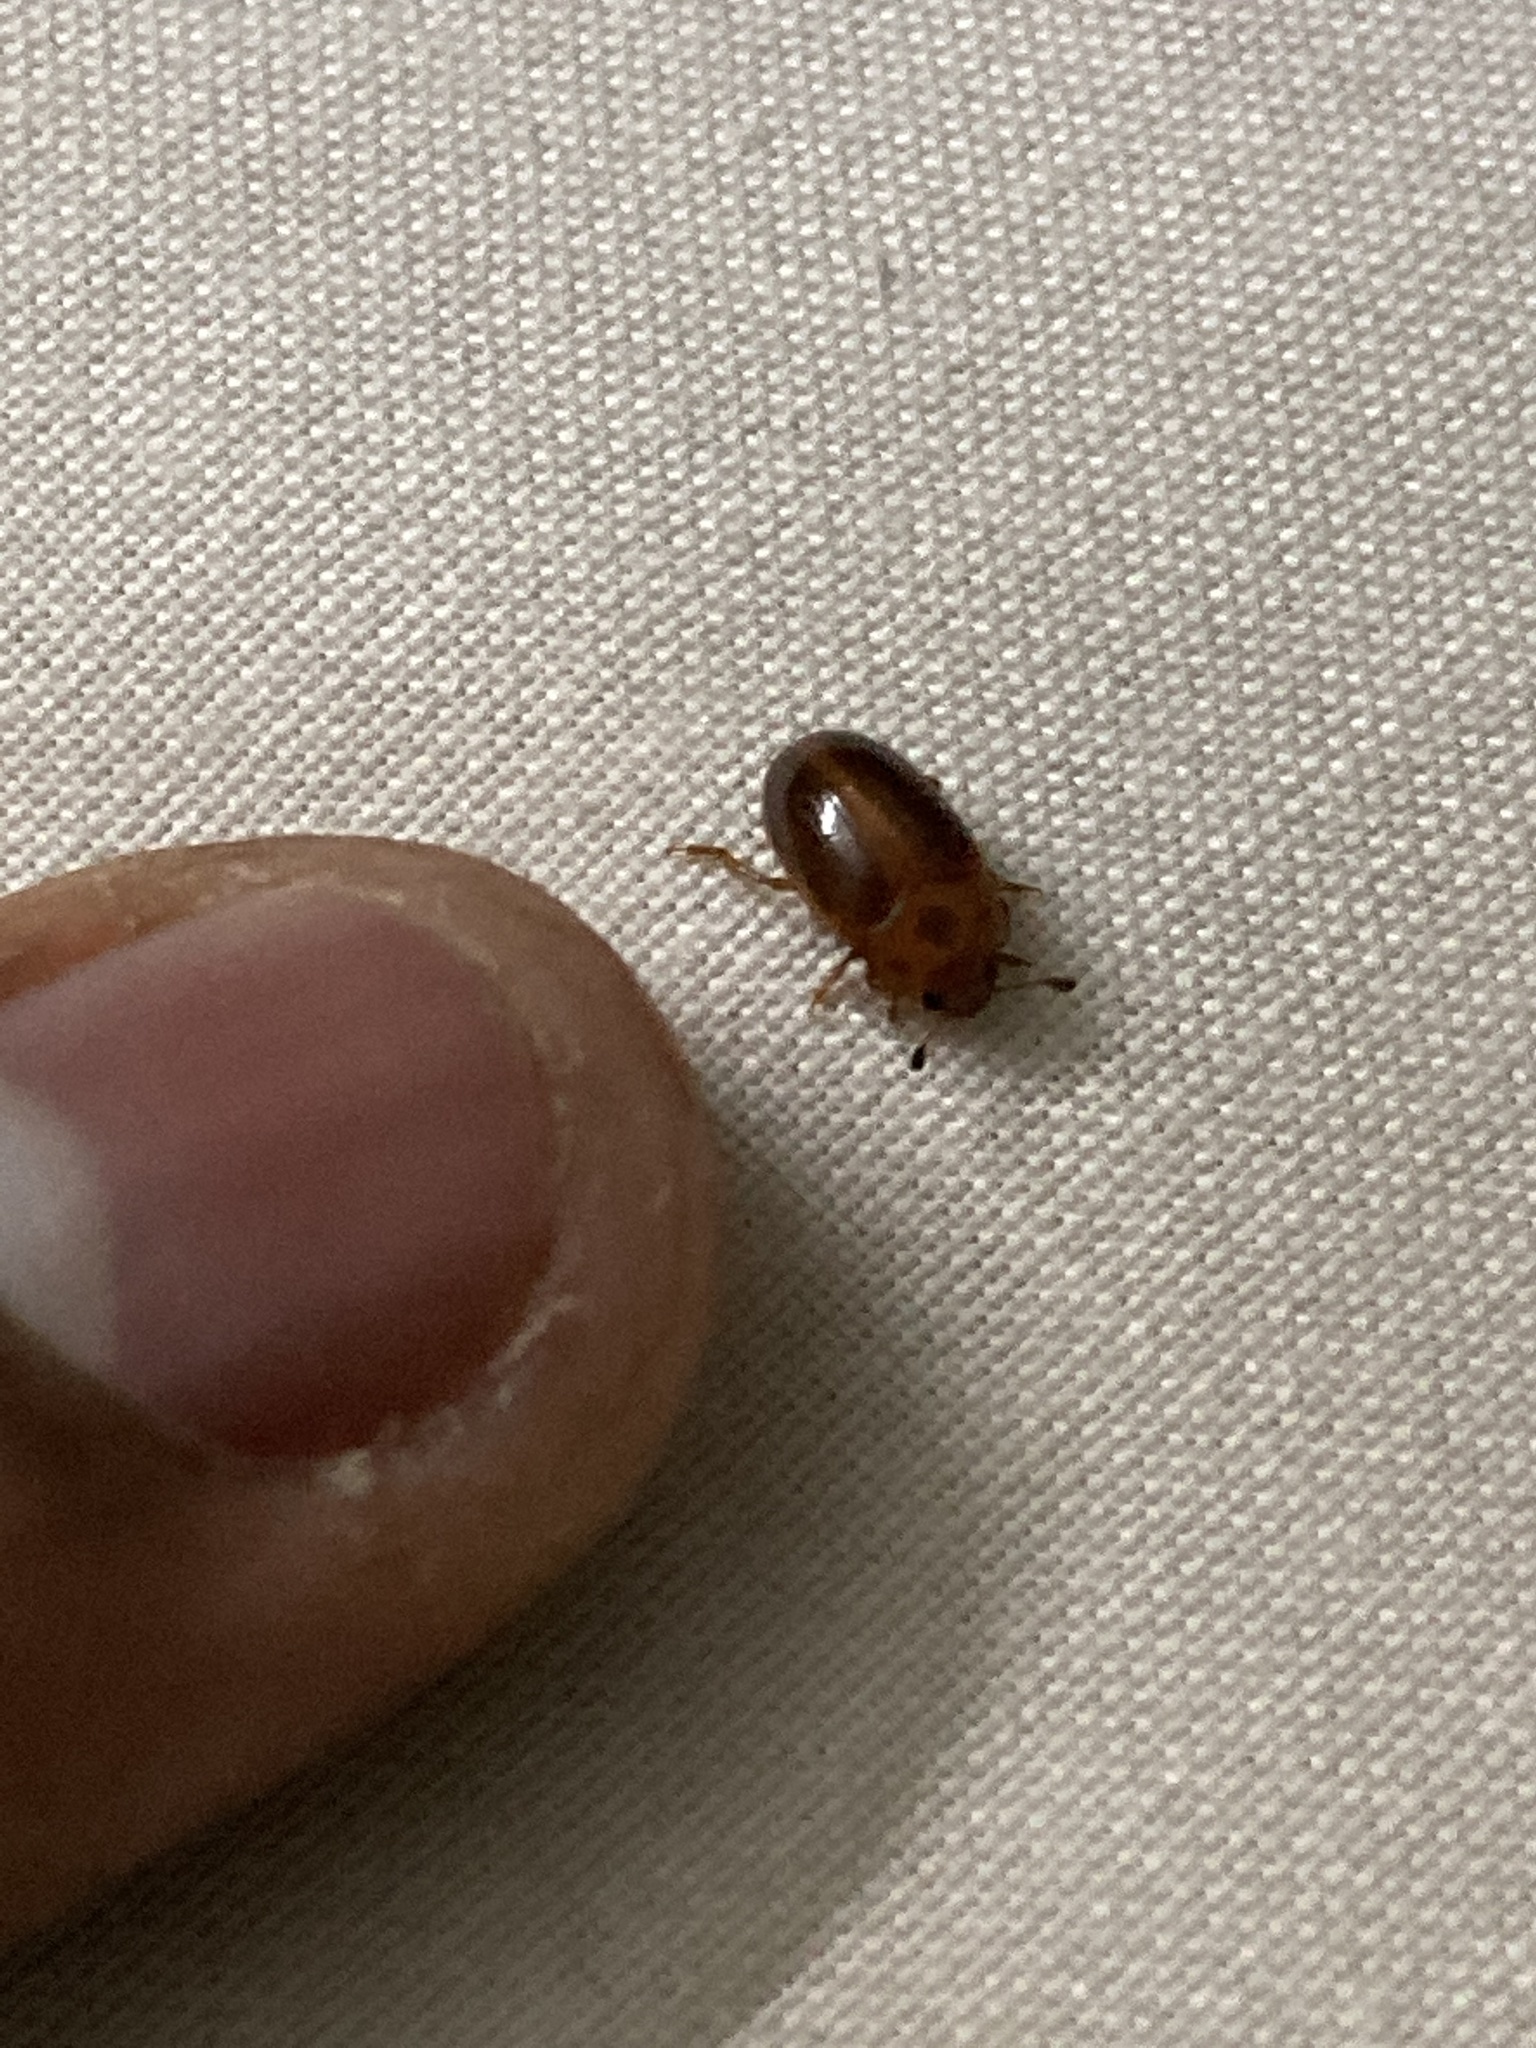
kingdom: Animalia
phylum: Arthropoda
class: Insecta
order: Coleoptera
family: Erotylidae
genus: Amblyopus
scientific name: Amblyopus
